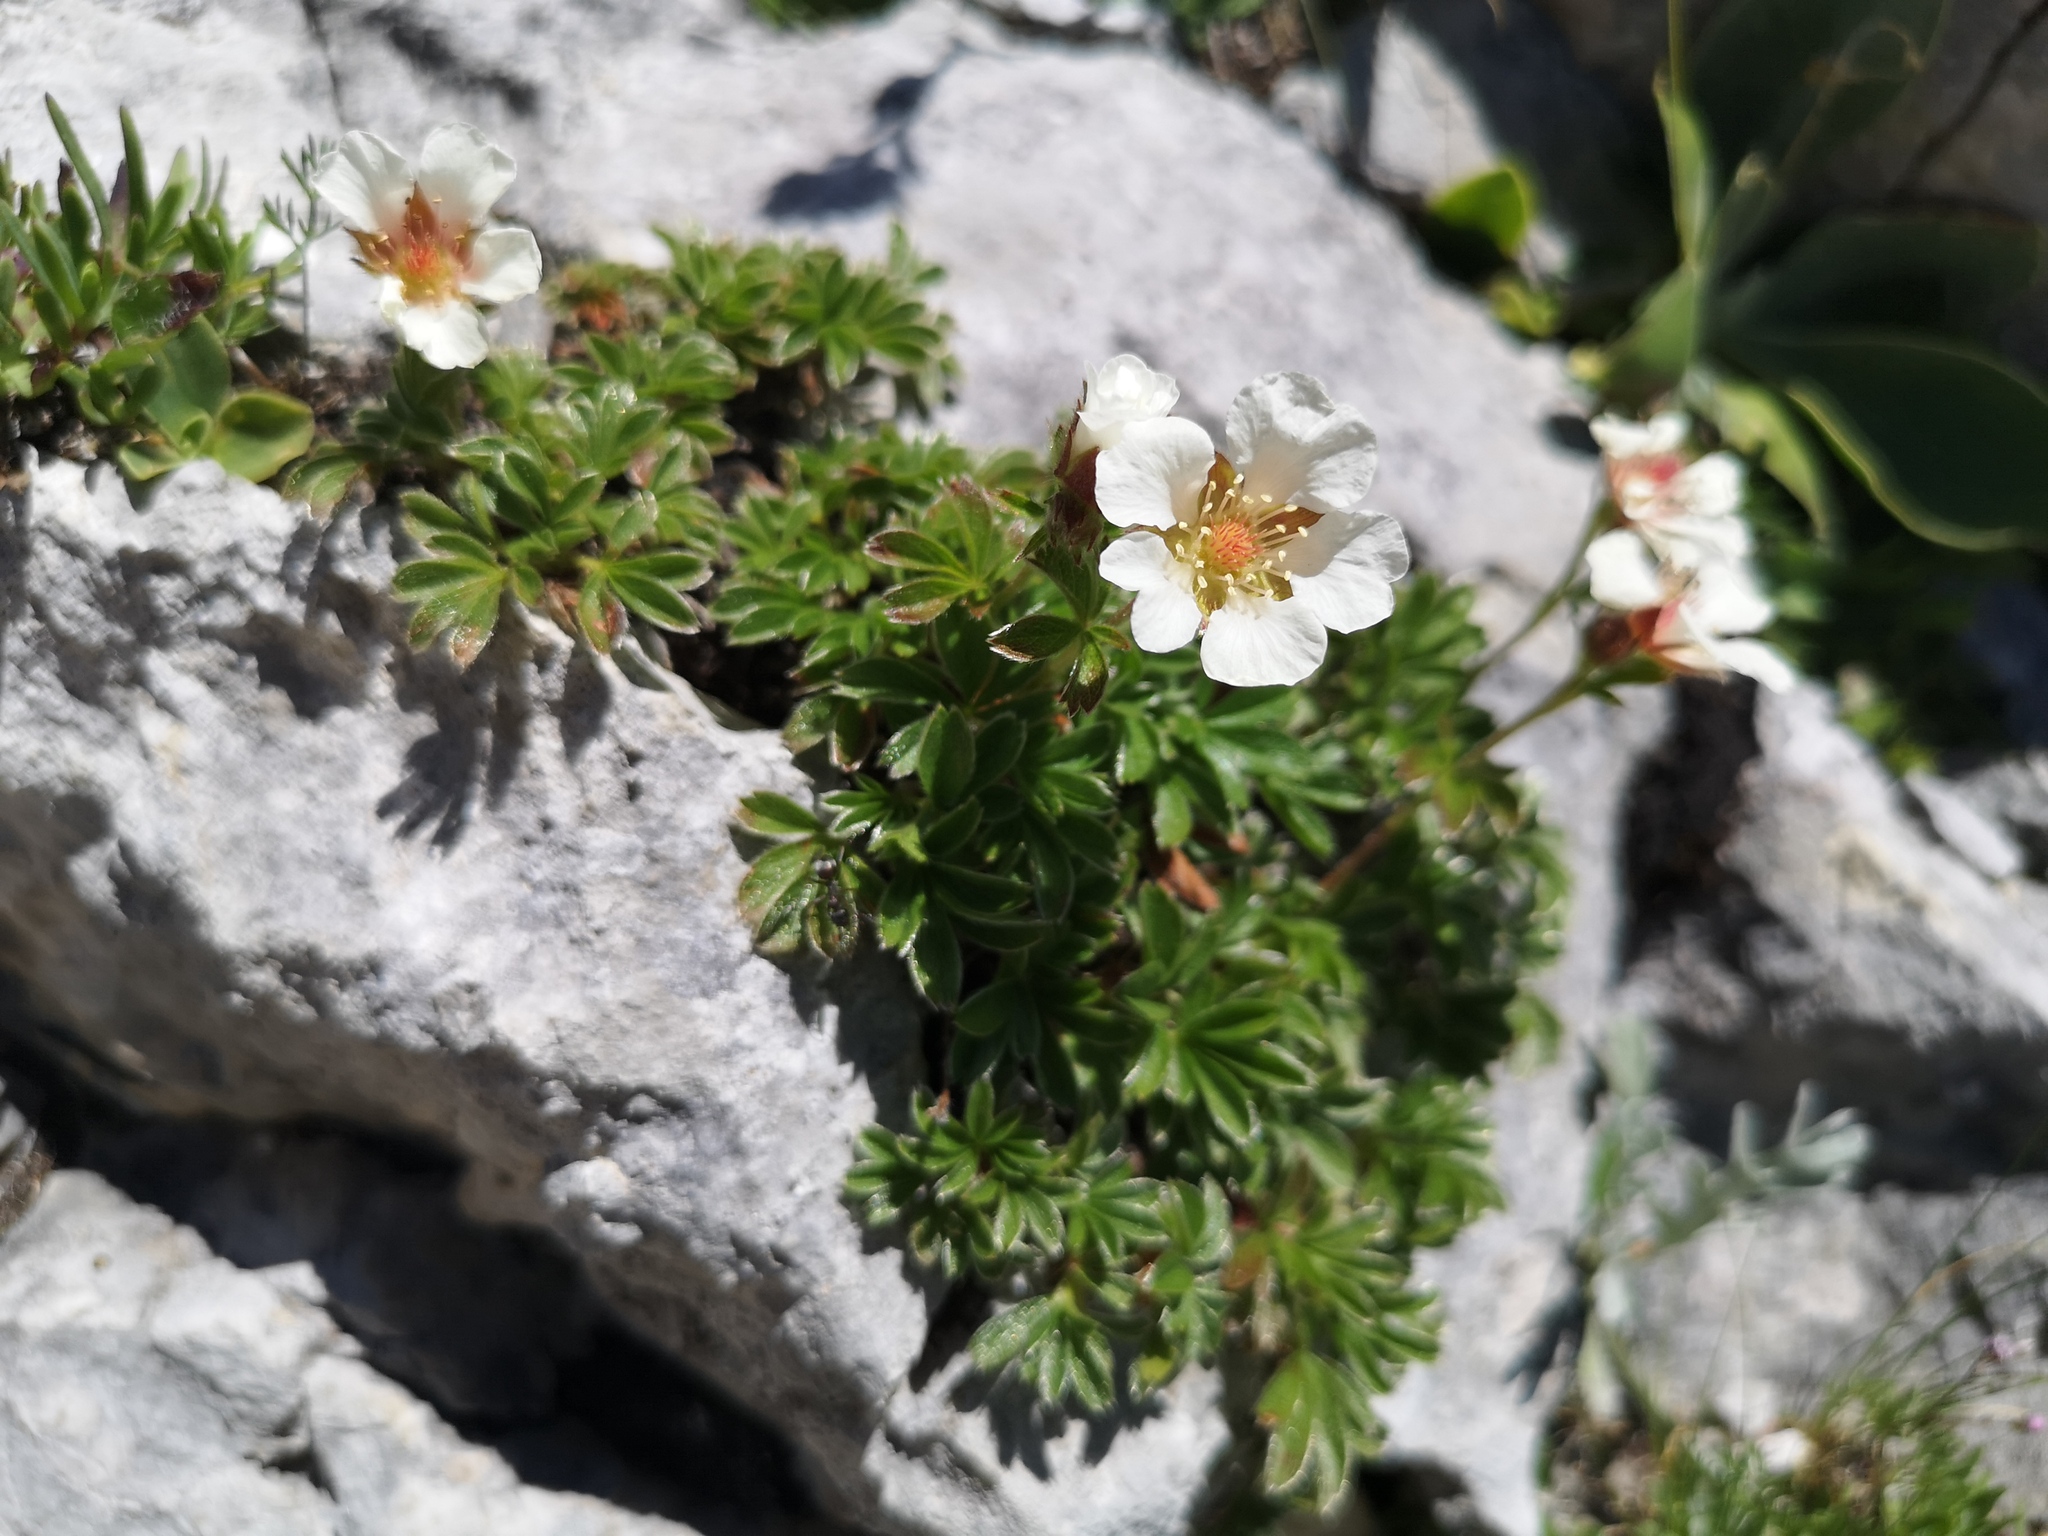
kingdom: Plantae
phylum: Tracheophyta
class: Magnoliopsida
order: Rosales
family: Rosaceae
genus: Potentilla
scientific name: Potentilla clusiana
